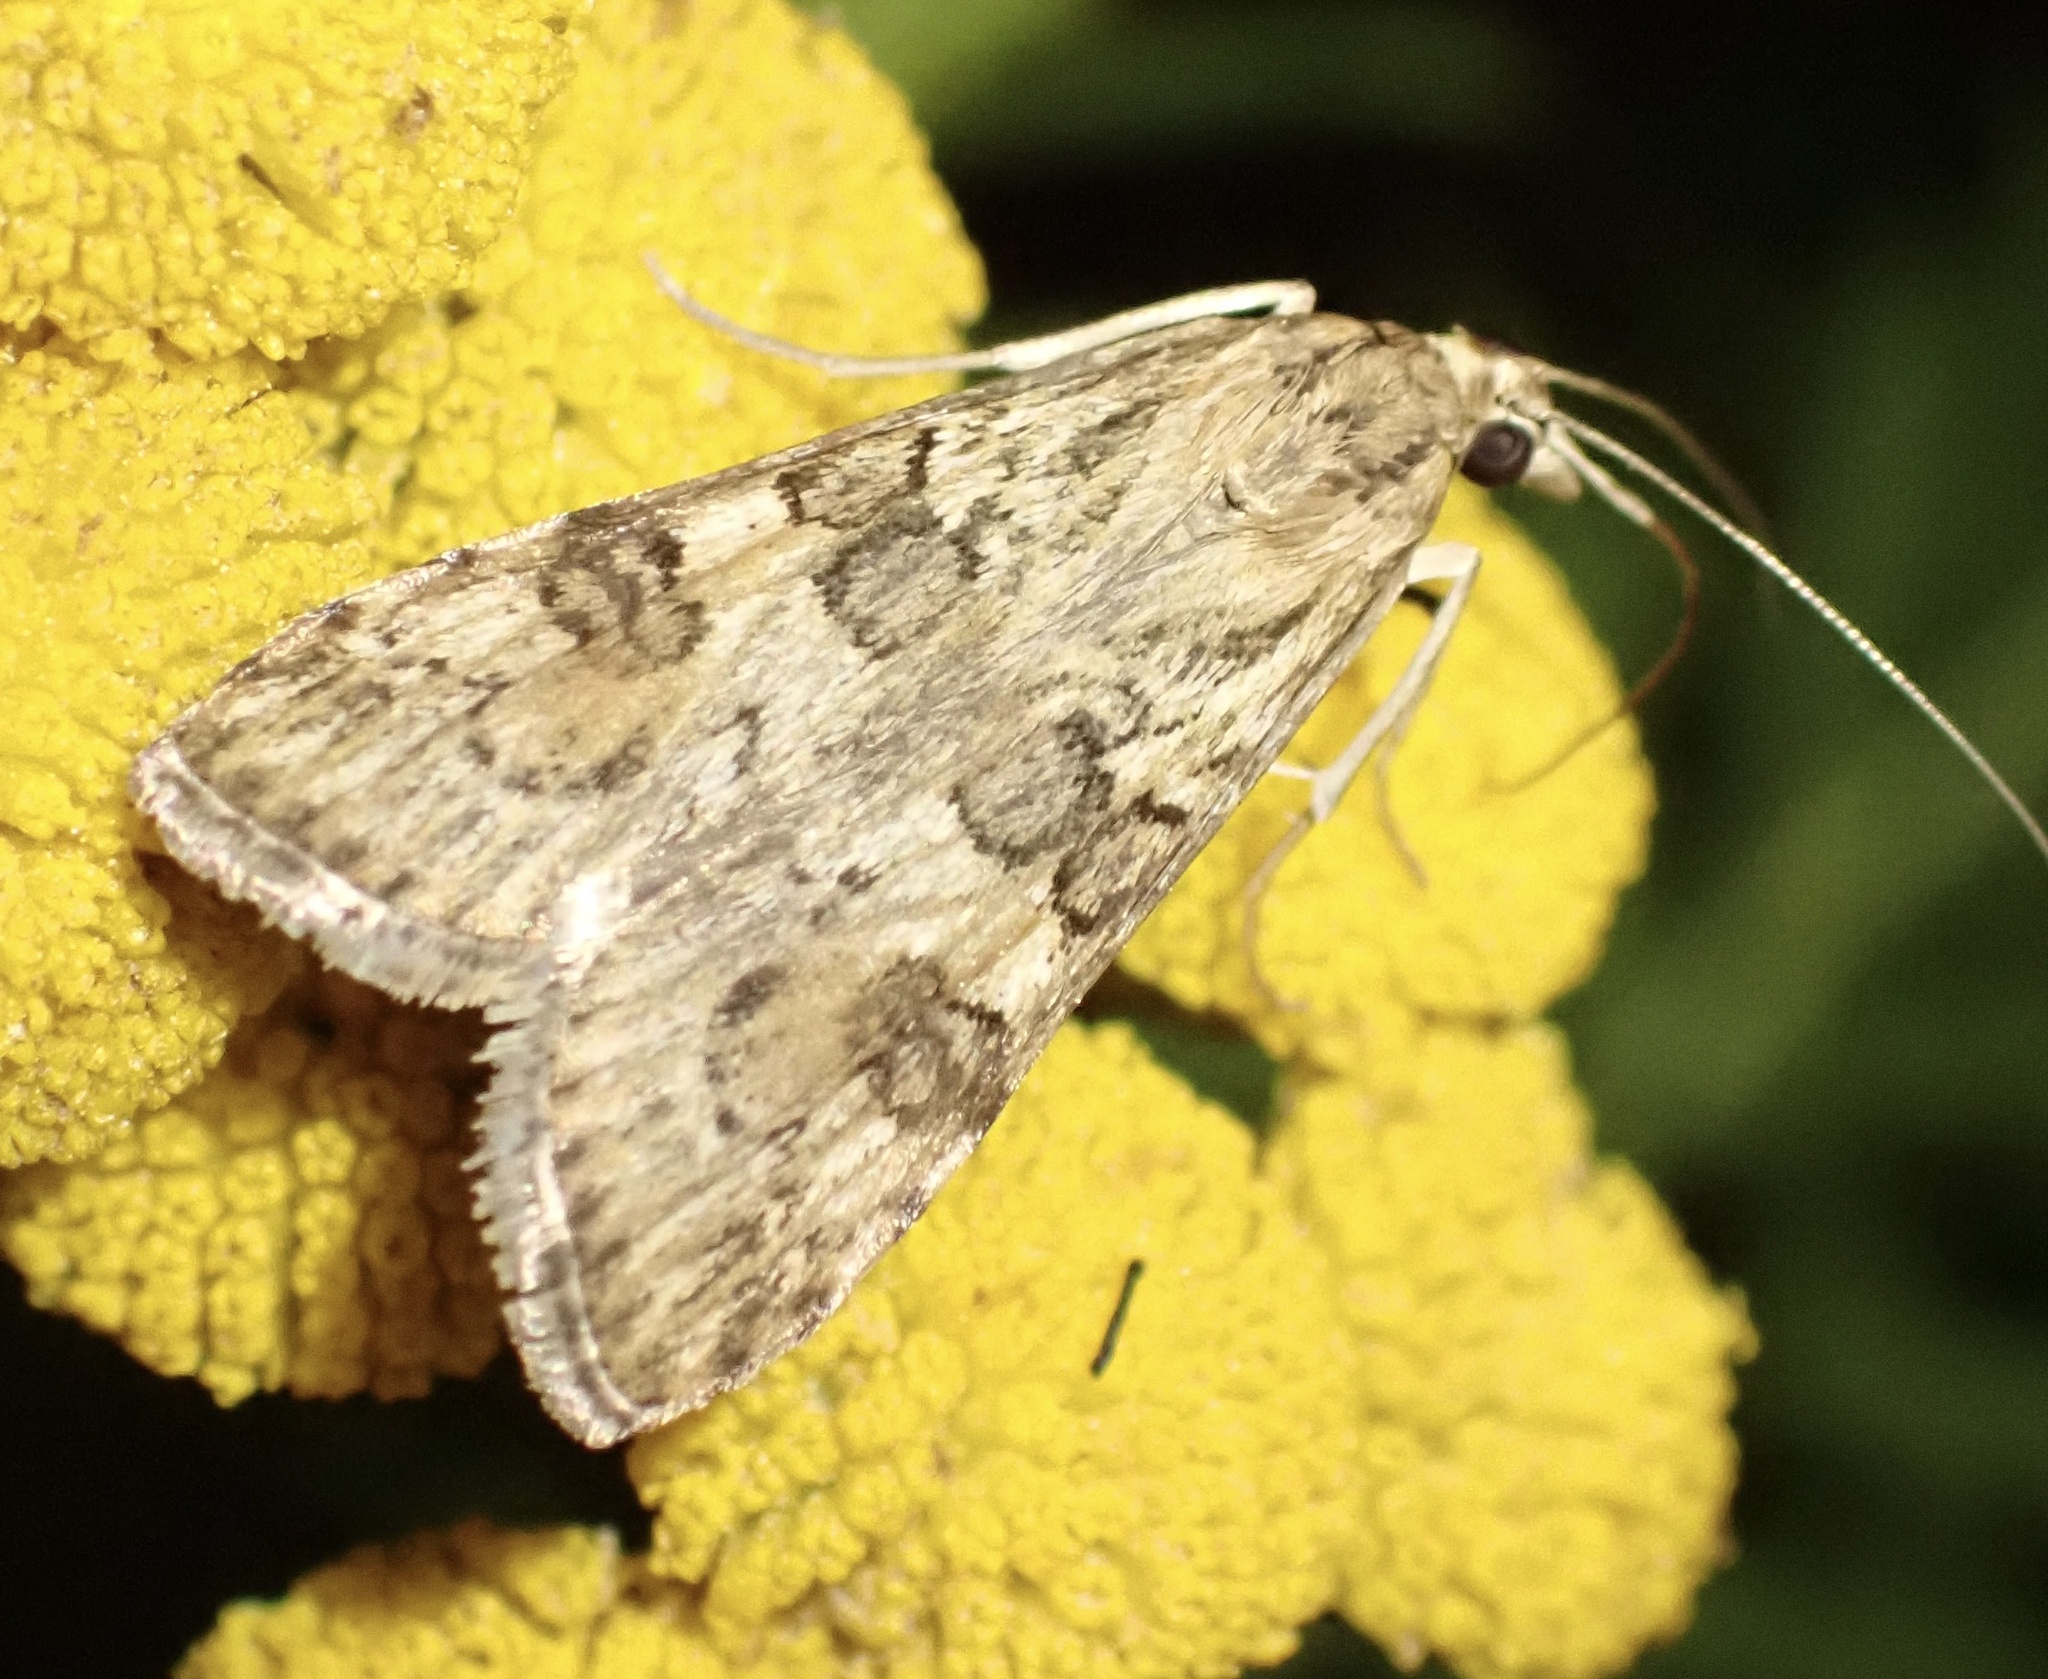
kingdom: Animalia
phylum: Arthropoda
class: Insecta
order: Lepidoptera
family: Crambidae
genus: Nomophila
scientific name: Nomophila noctuella
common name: Rush veneer
